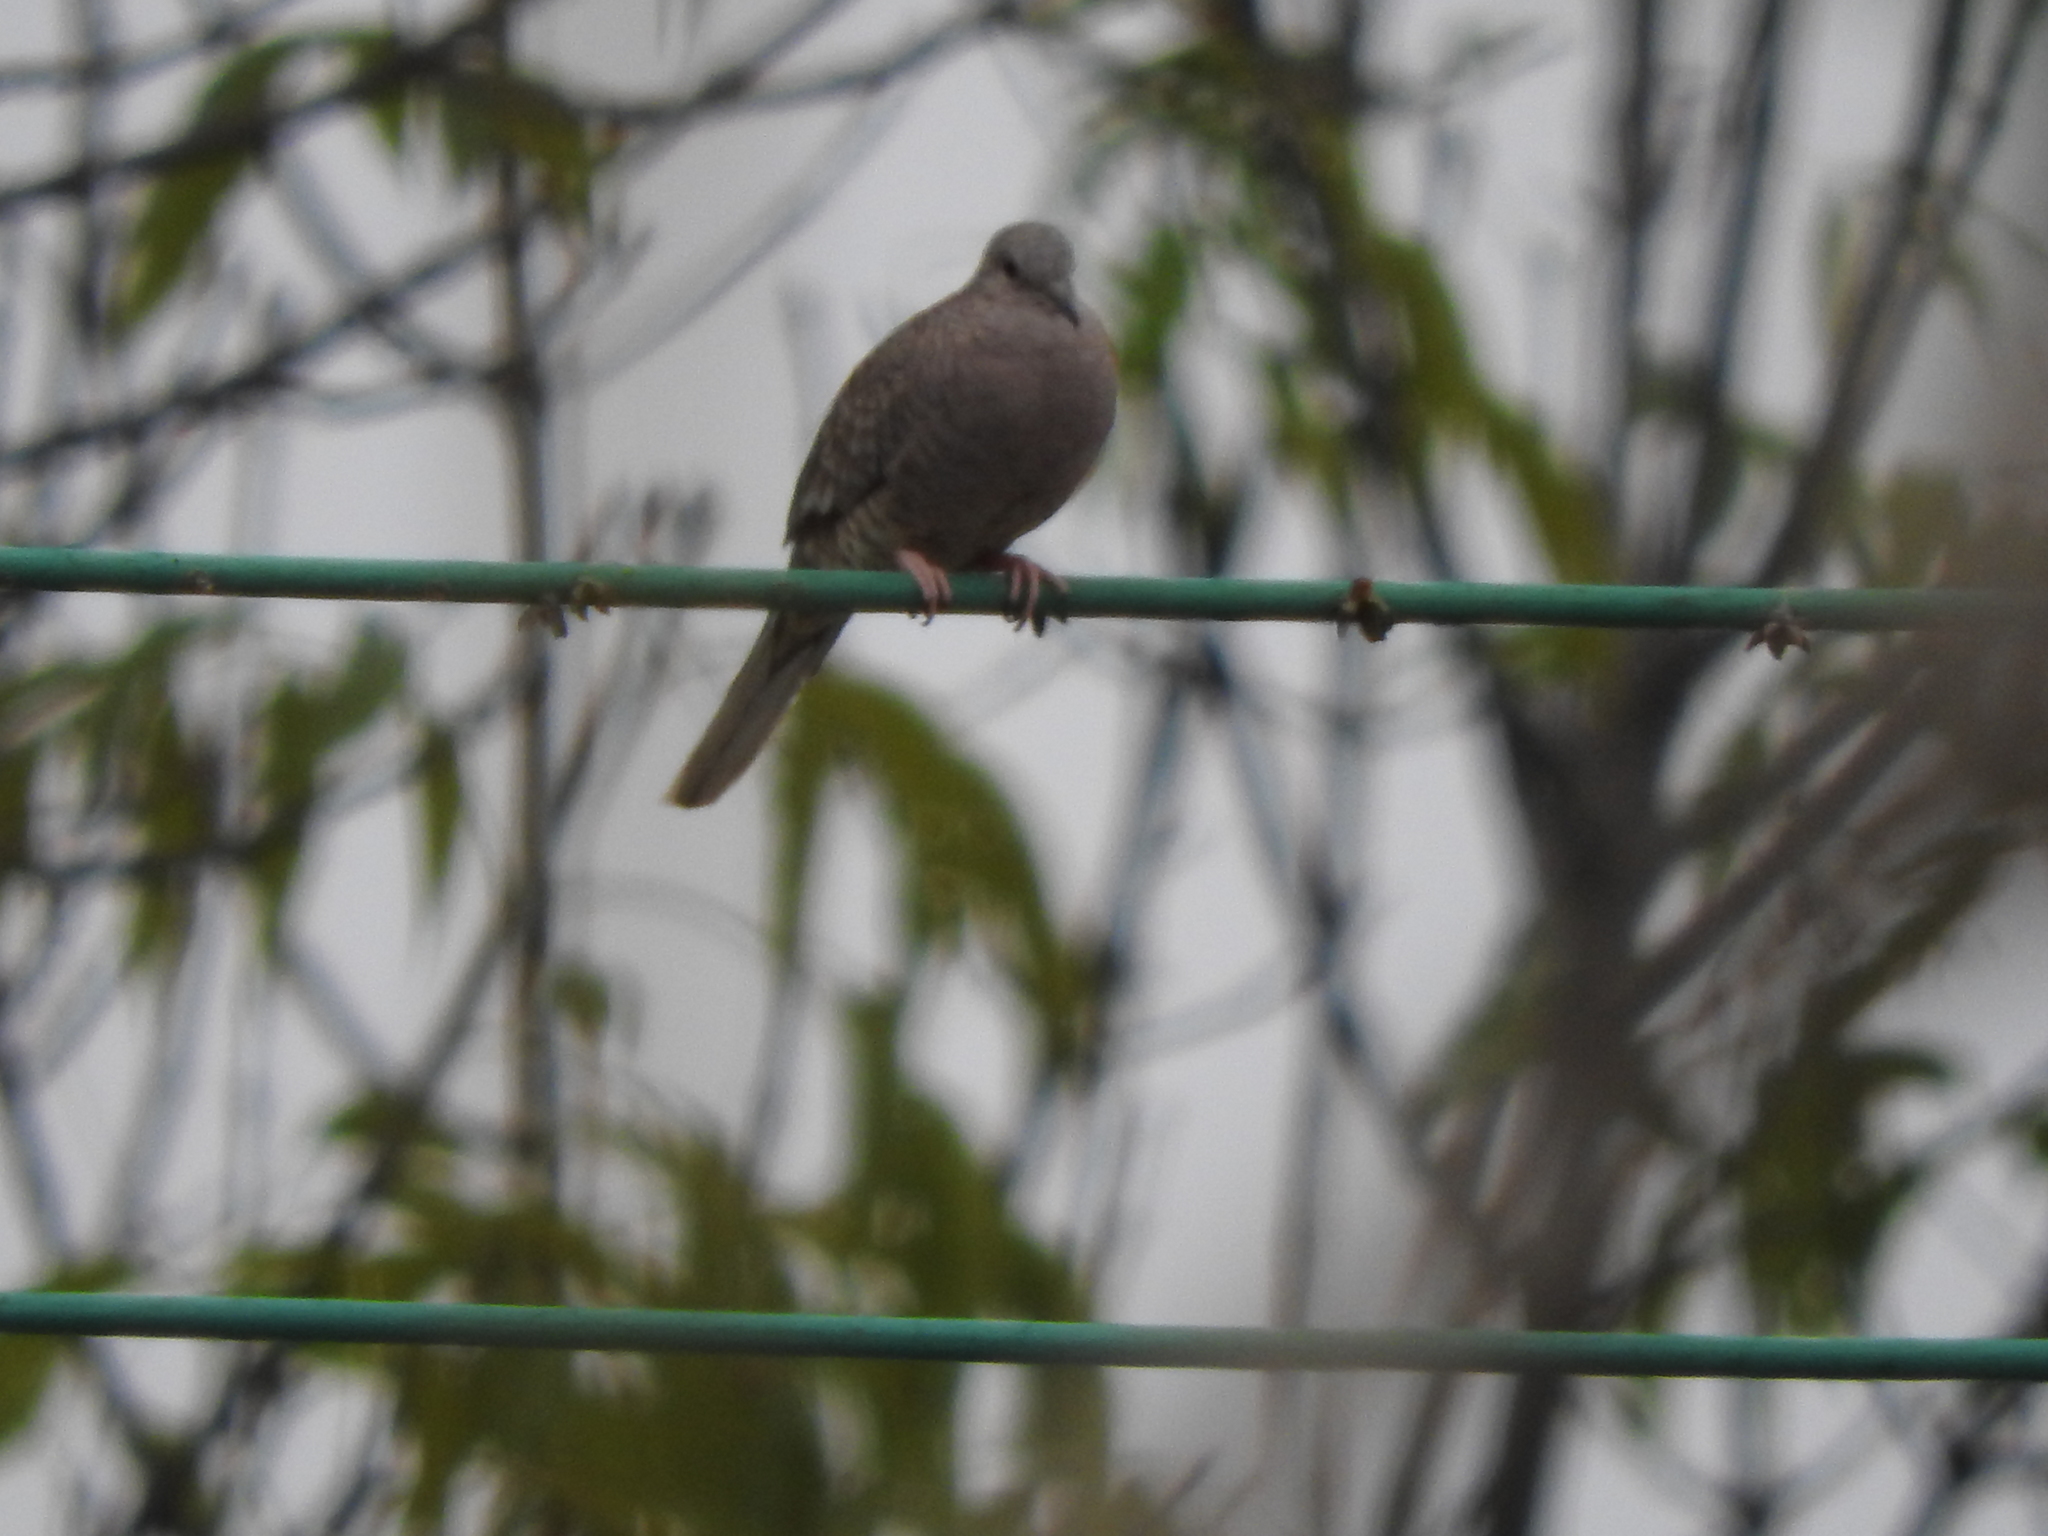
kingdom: Animalia
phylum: Chordata
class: Aves
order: Columbiformes
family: Columbidae
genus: Columbina
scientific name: Columbina inca
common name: Inca dove
